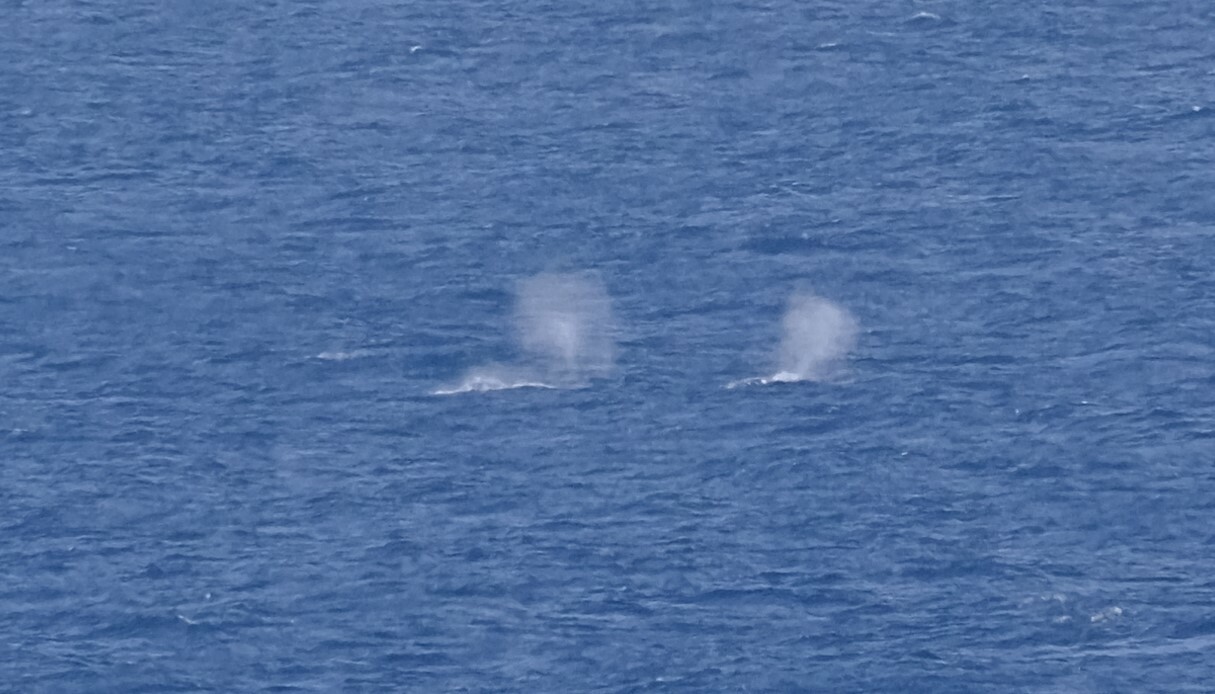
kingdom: Animalia
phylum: Chordata
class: Mammalia
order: Cetacea
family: Balaenopteridae
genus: Megaptera
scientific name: Megaptera novaeangliae
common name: Humpback whale
